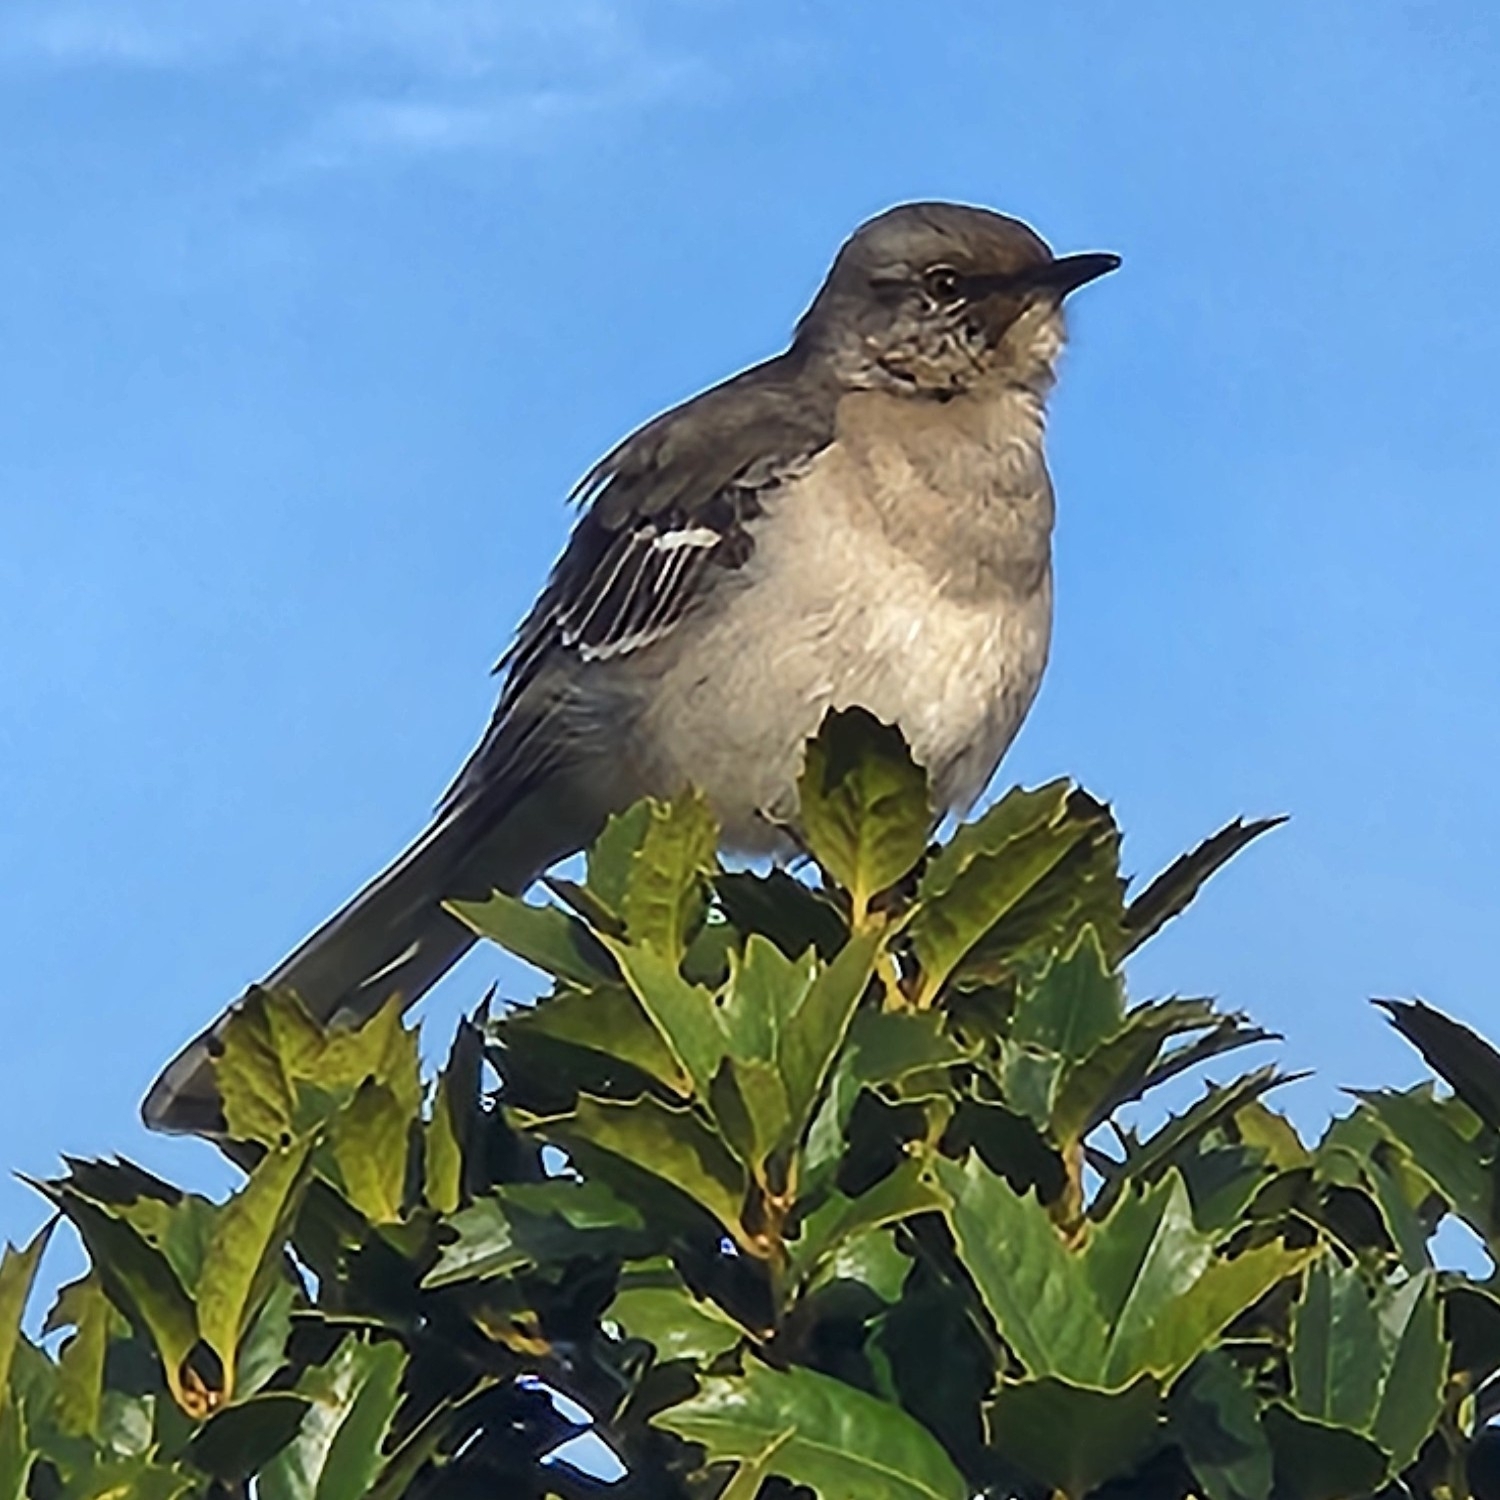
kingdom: Animalia
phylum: Chordata
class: Aves
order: Passeriformes
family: Mimidae
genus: Mimus
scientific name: Mimus polyglottos
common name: Northern mockingbird
